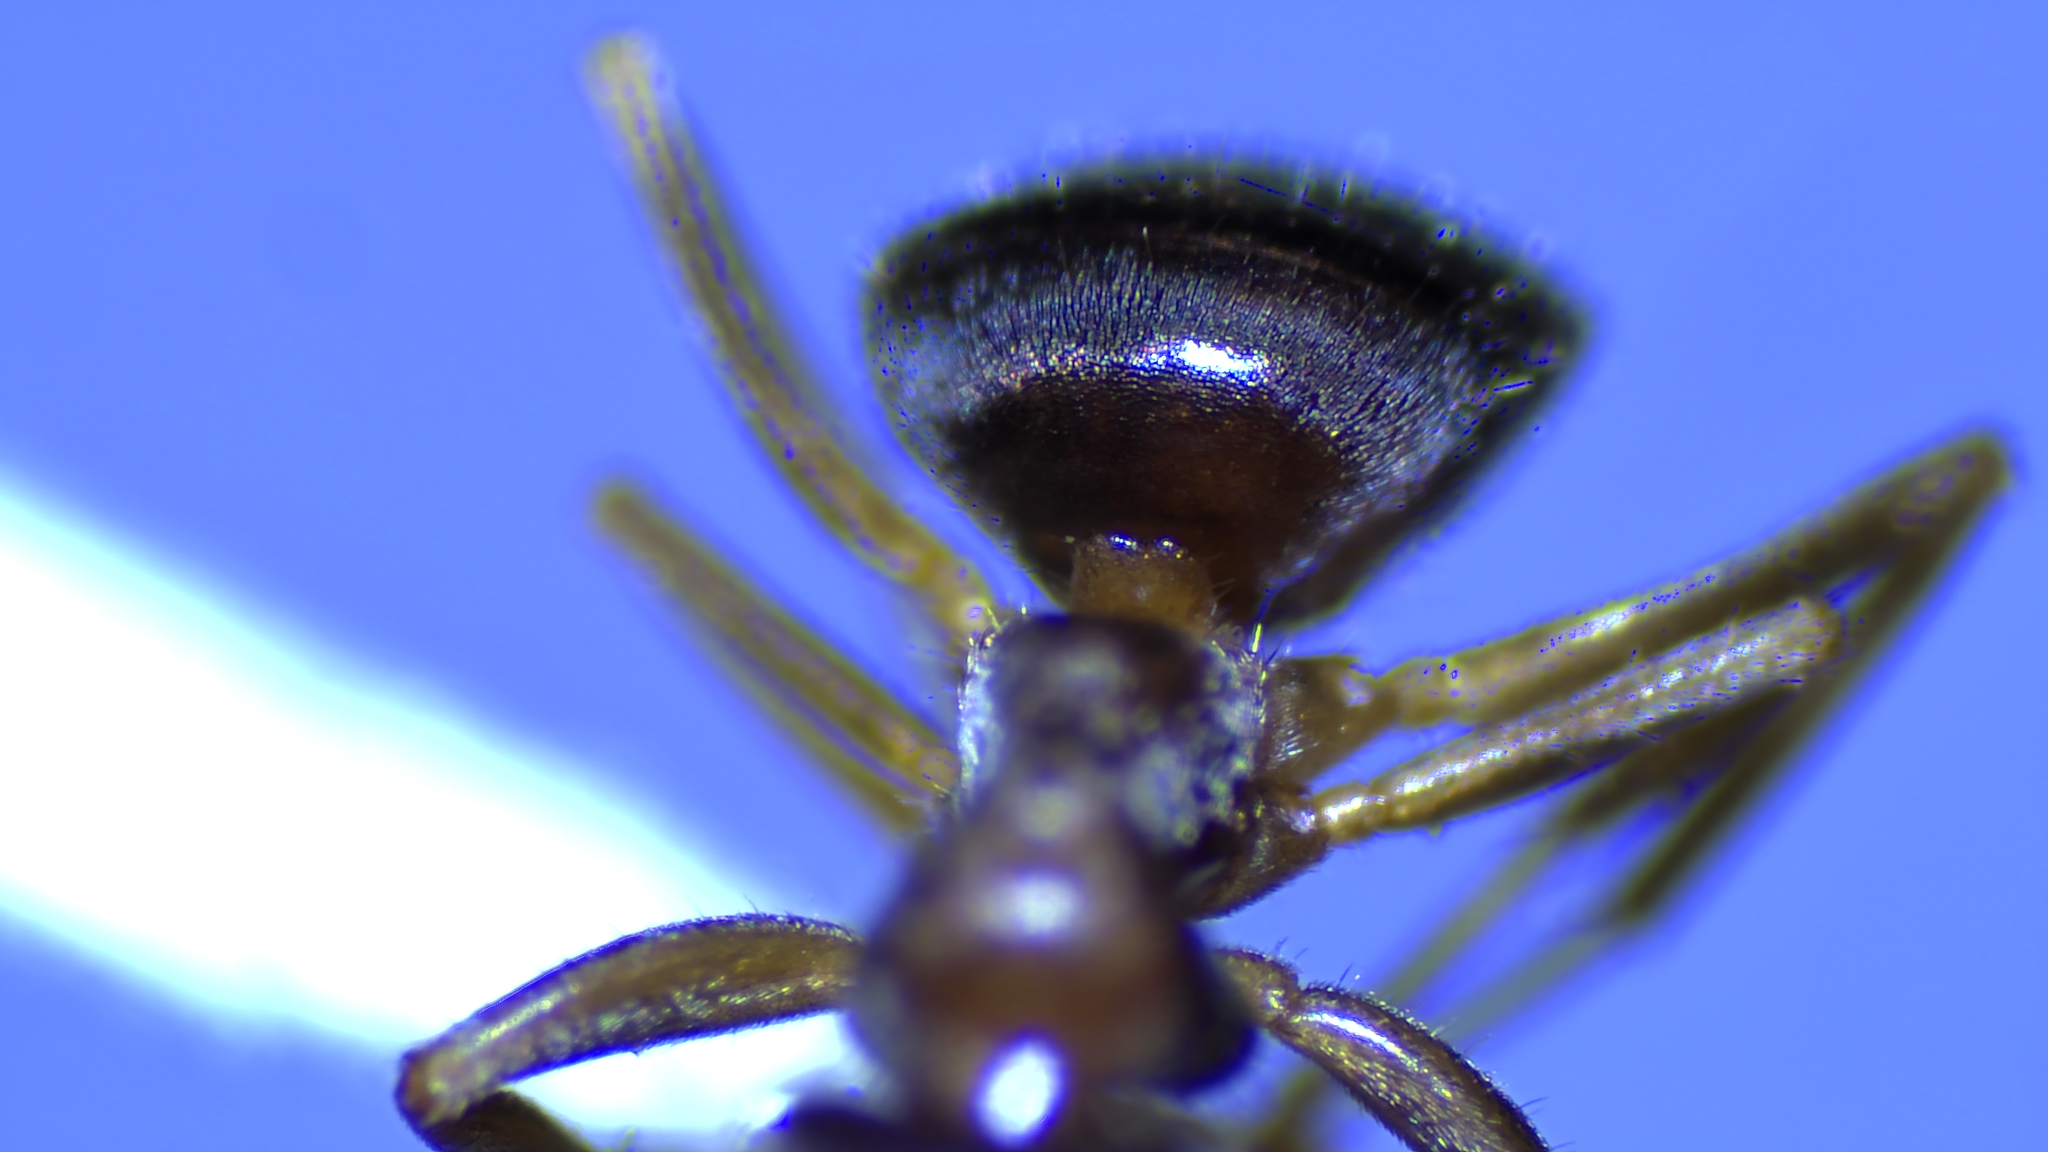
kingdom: Animalia
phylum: Arthropoda
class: Insecta
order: Hymenoptera
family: Formicidae
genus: Lasius
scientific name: Lasius neoniger
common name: Turfgrass ant
